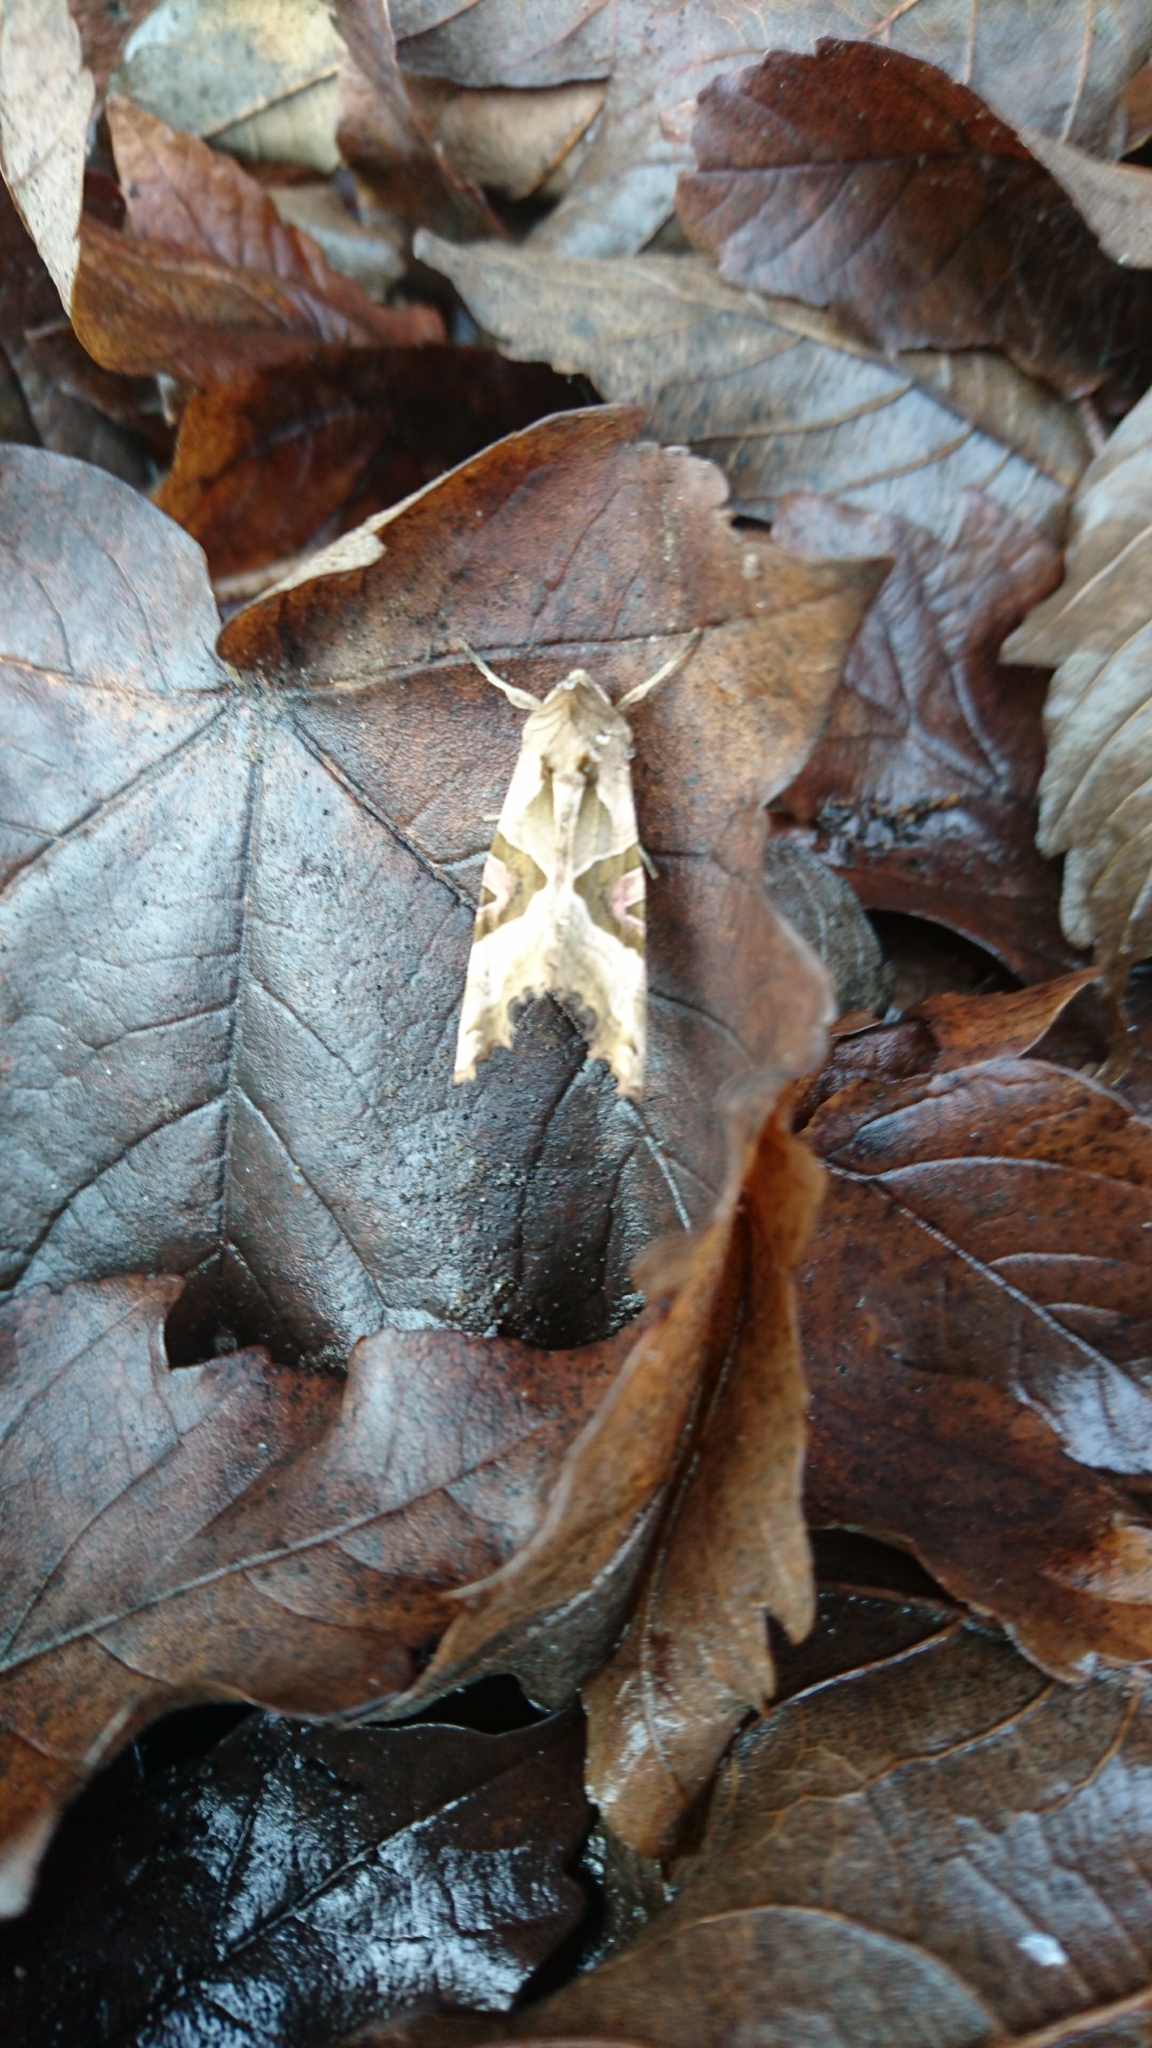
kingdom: Animalia
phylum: Arthropoda
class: Insecta
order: Lepidoptera
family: Noctuidae
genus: Phlogophora
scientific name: Phlogophora meticulosa
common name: Angle shades
